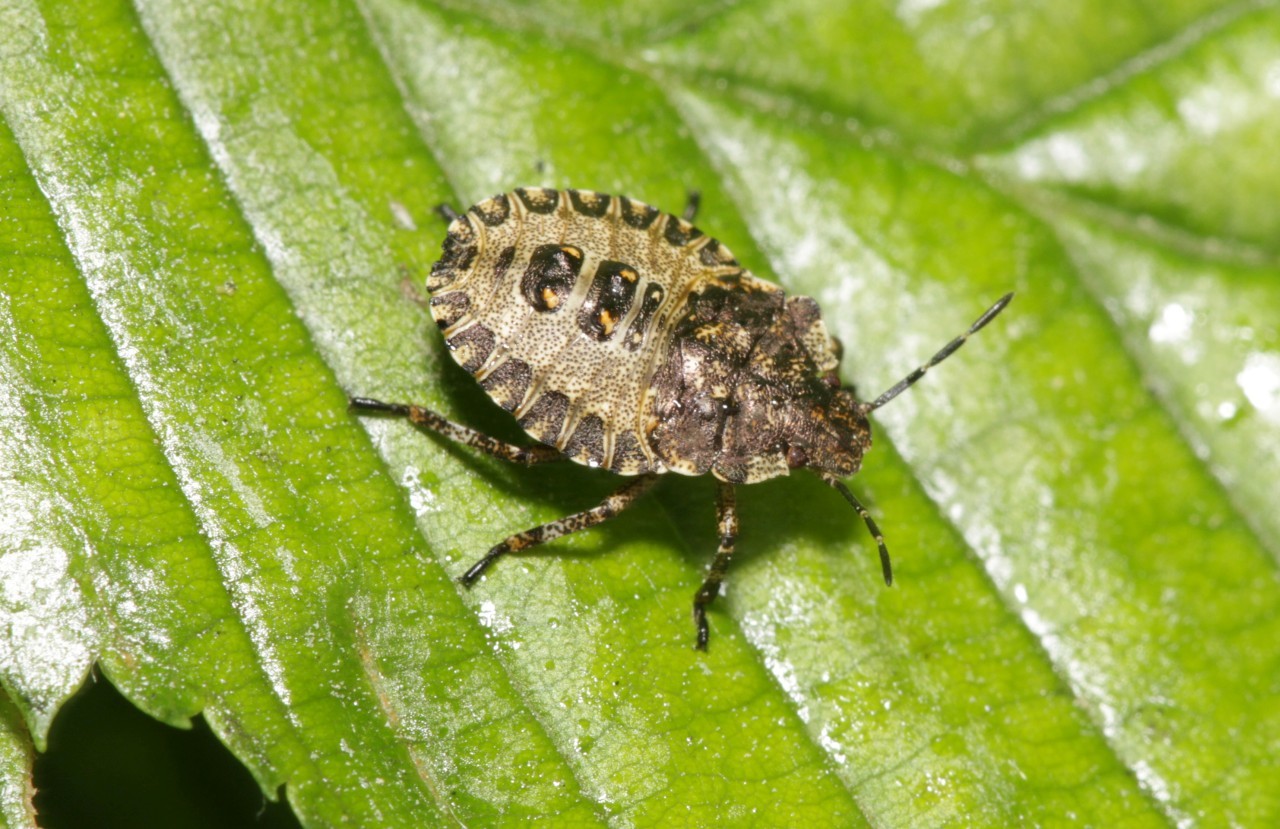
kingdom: Animalia
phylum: Arthropoda
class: Insecta
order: Hemiptera
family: Pentatomidae
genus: Pentatoma
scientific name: Pentatoma rufipes
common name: Forest bug
